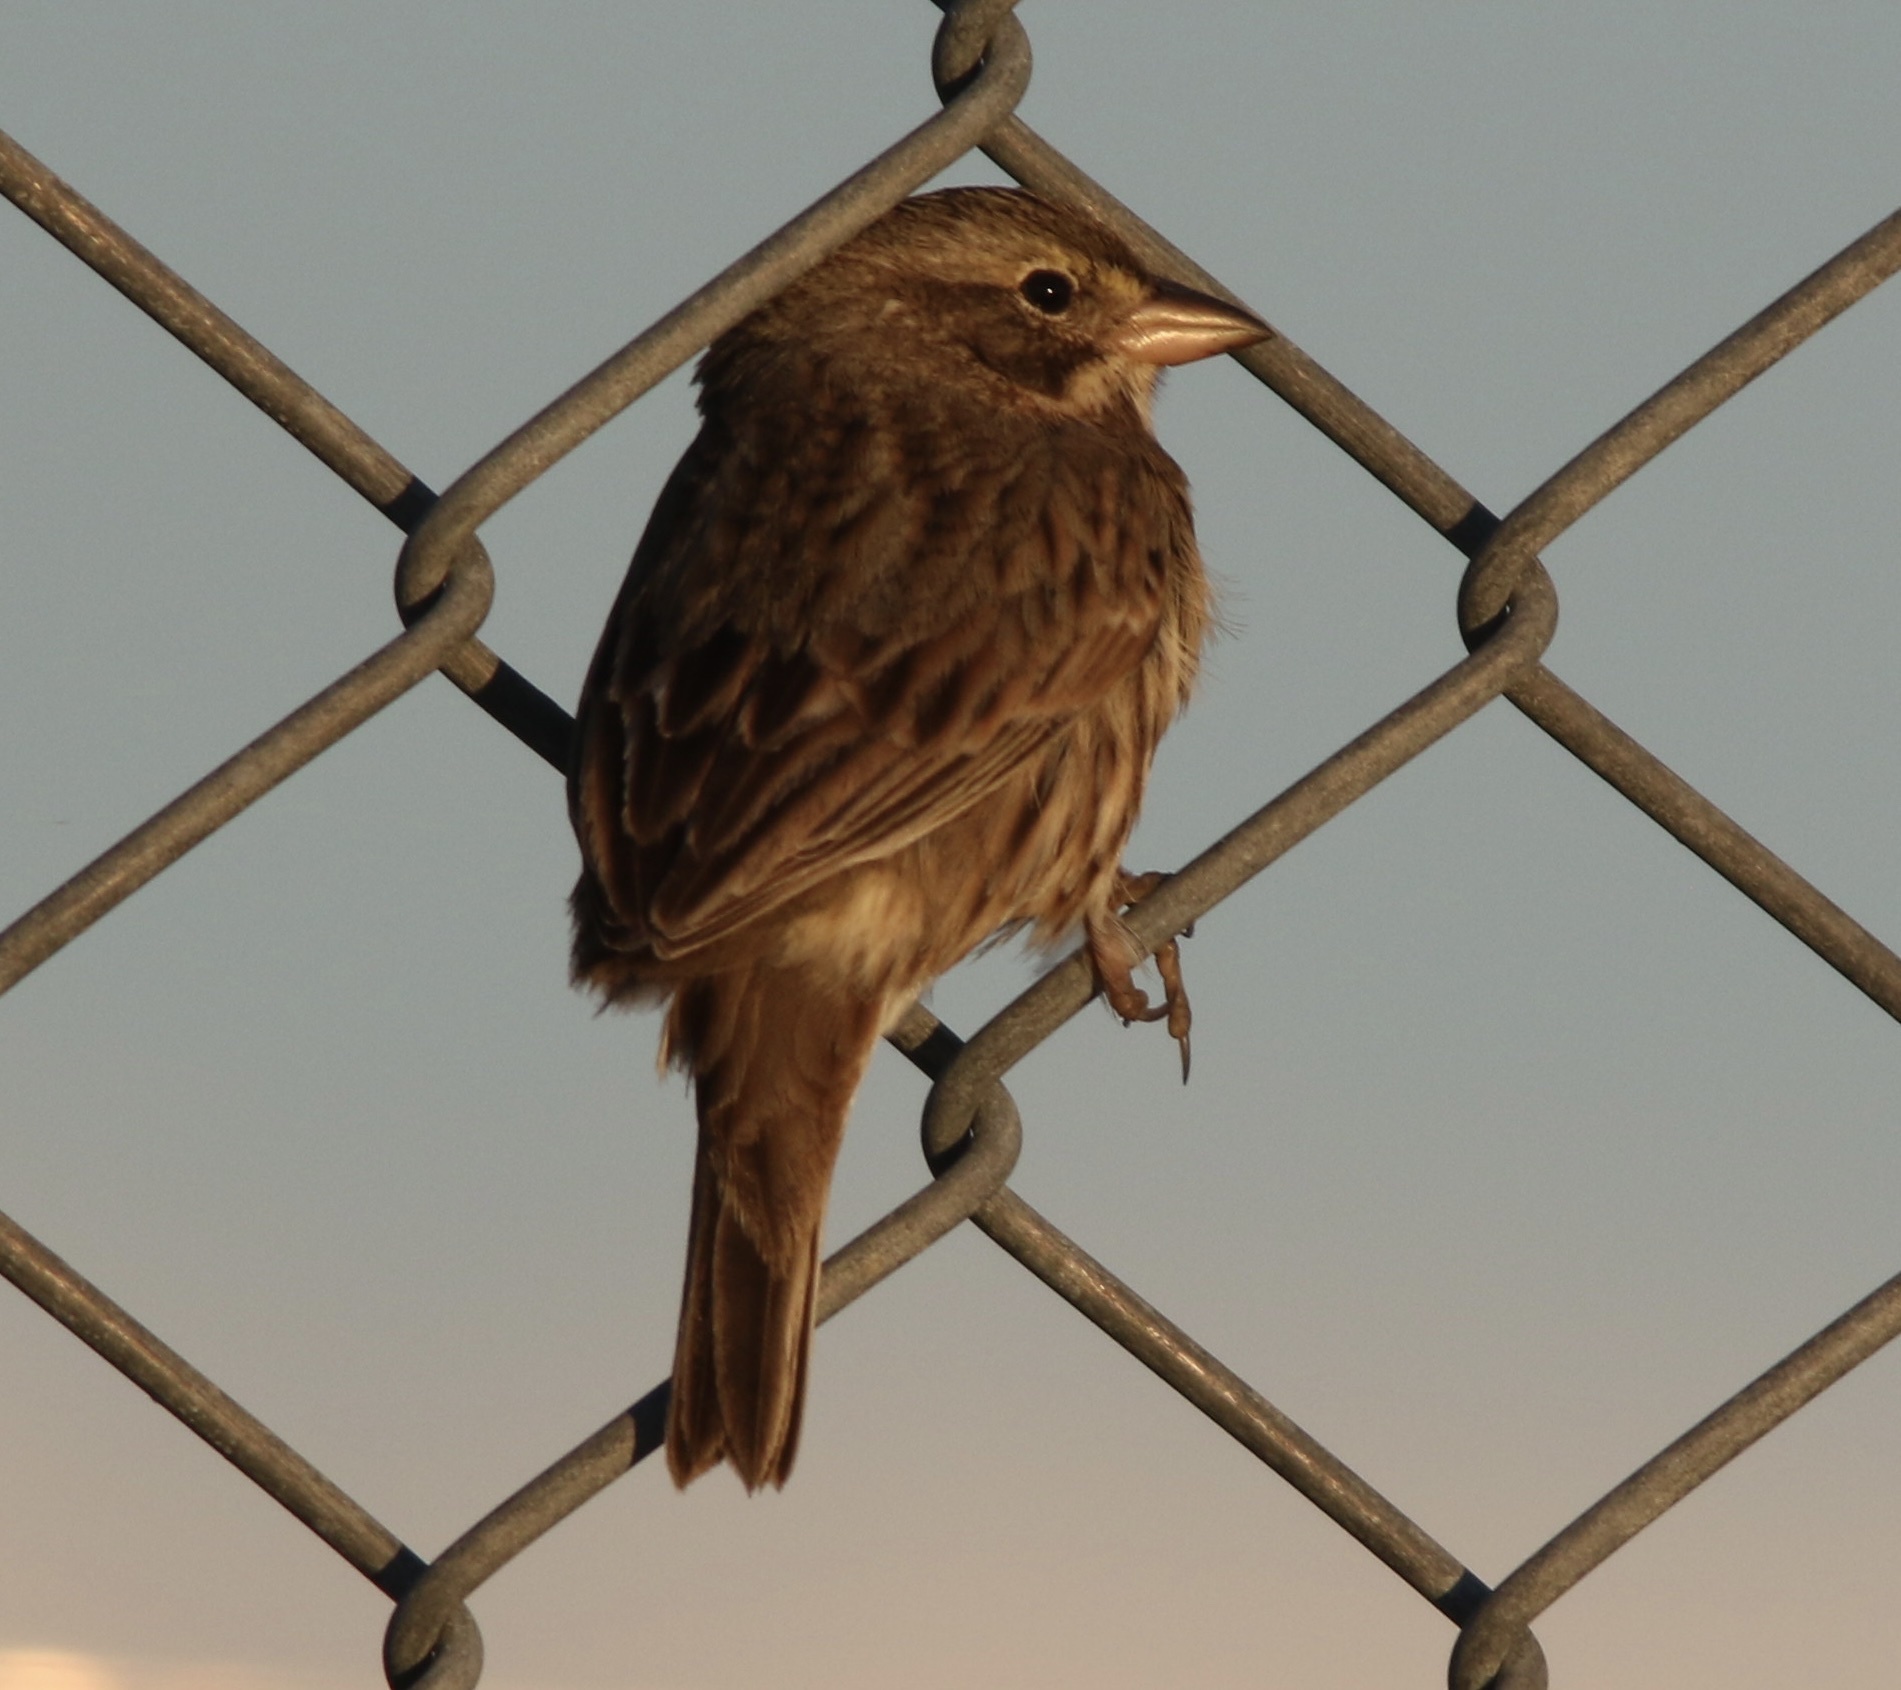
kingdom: Animalia
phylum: Chordata
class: Aves
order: Passeriformes
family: Passerellidae
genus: Passerculus
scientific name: Passerculus sandwichensis
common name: Savannah sparrow
